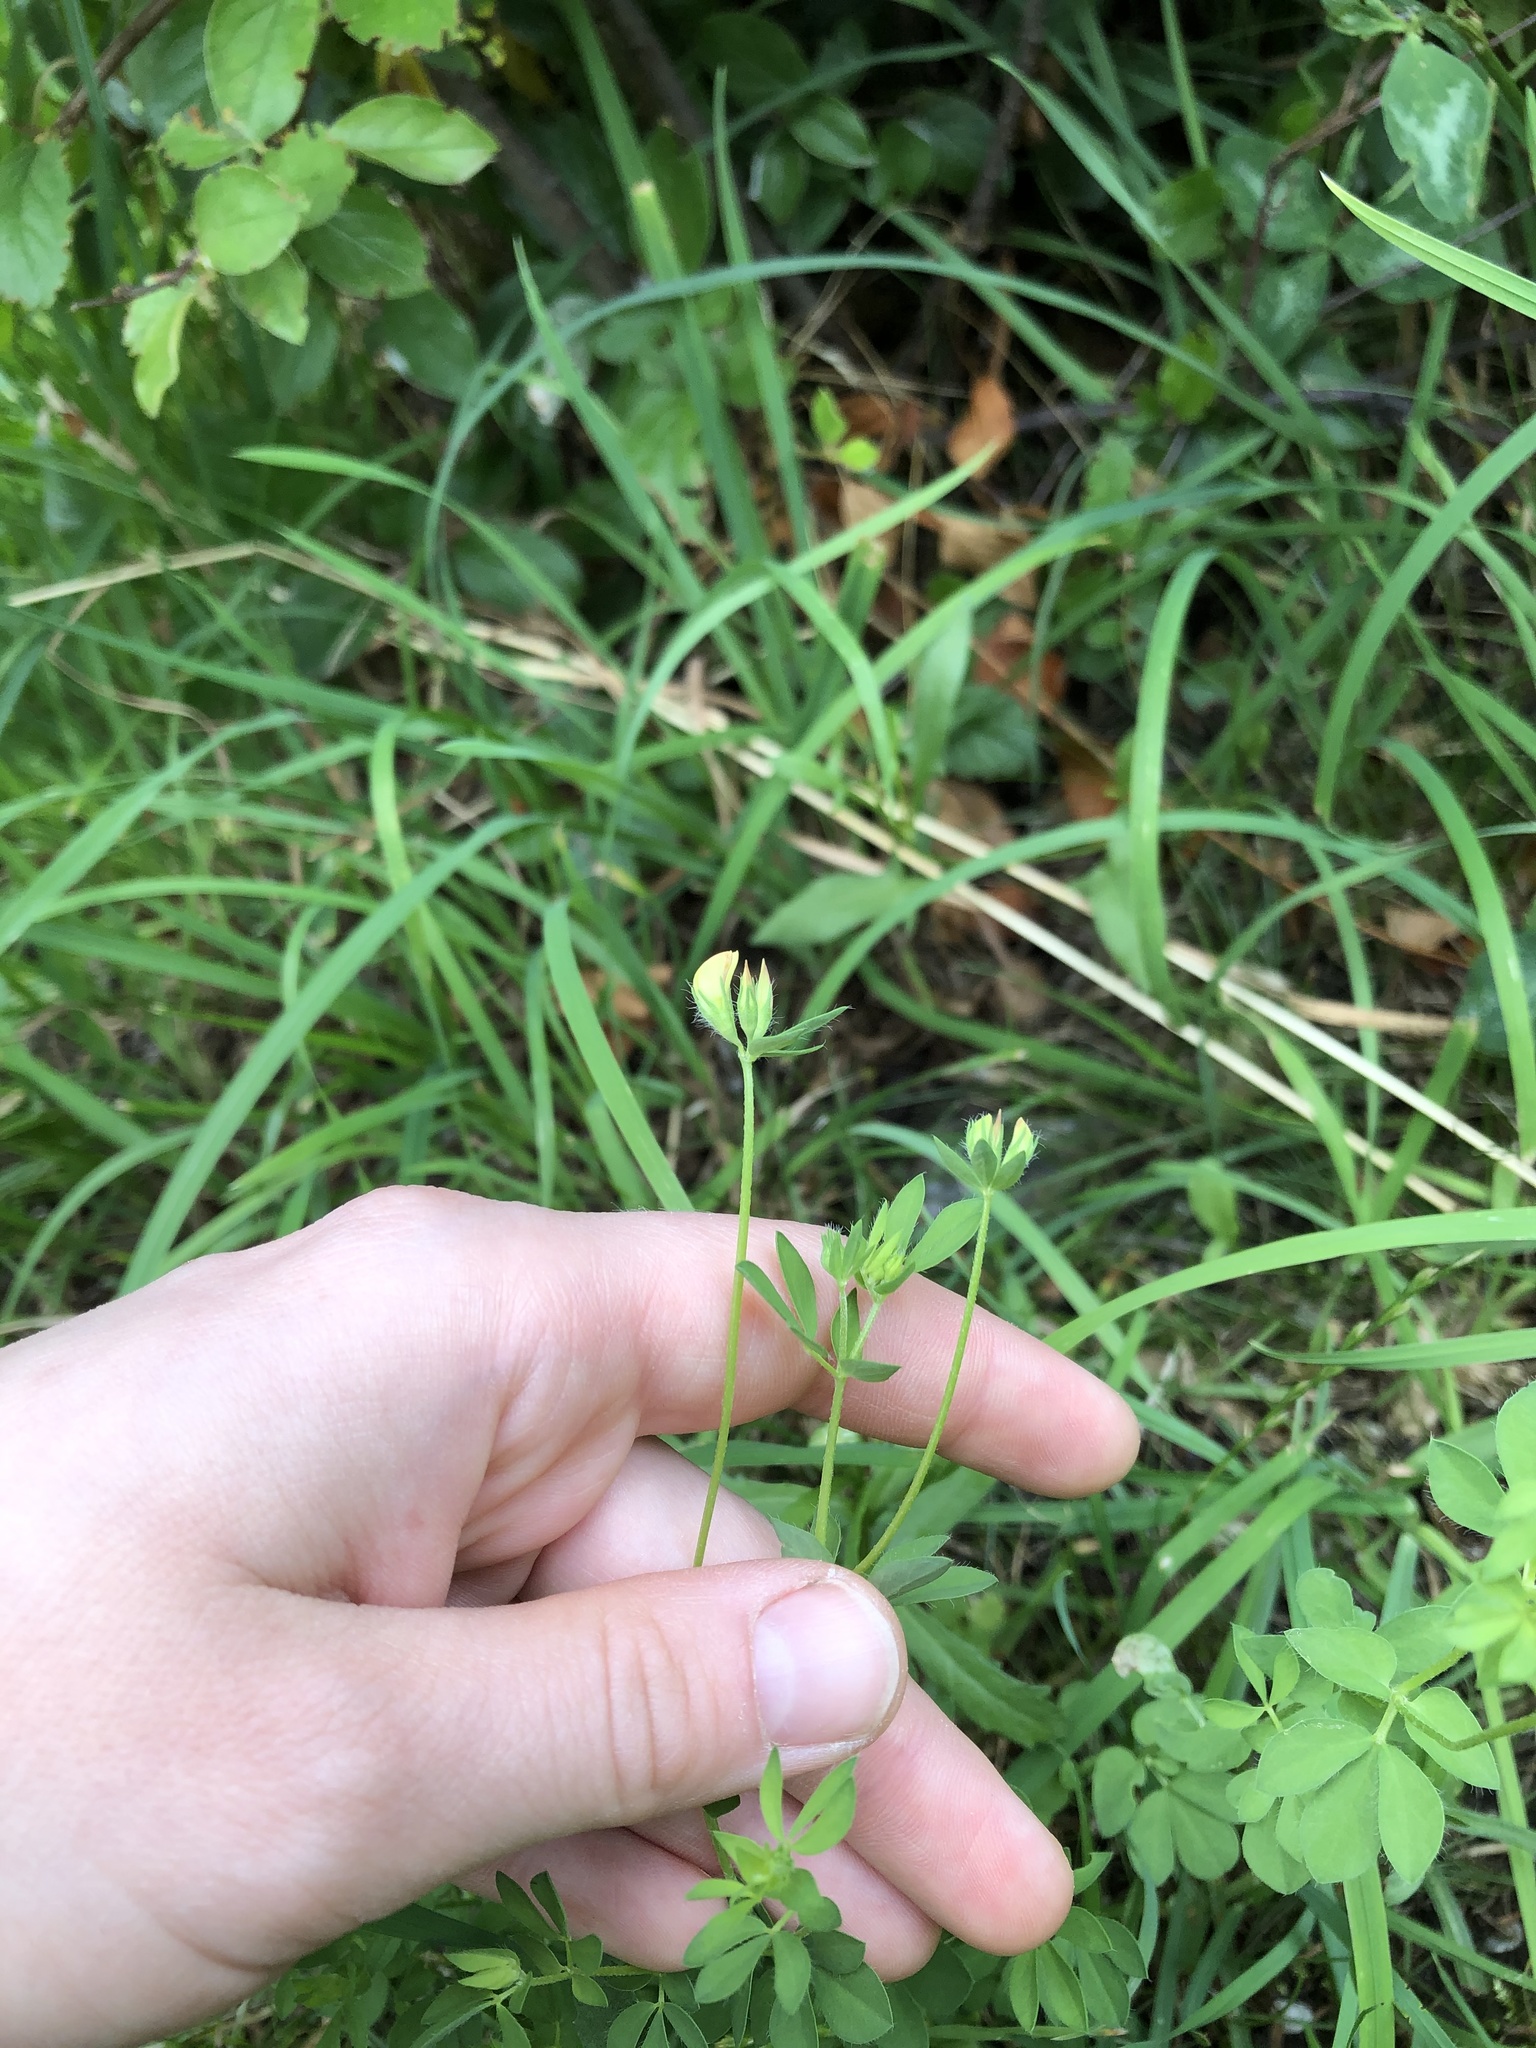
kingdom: Plantae
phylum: Tracheophyta
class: Magnoliopsida
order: Gentianales
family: Rubiaceae
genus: Galium
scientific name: Galium mollugo
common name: Hedge bedstraw
